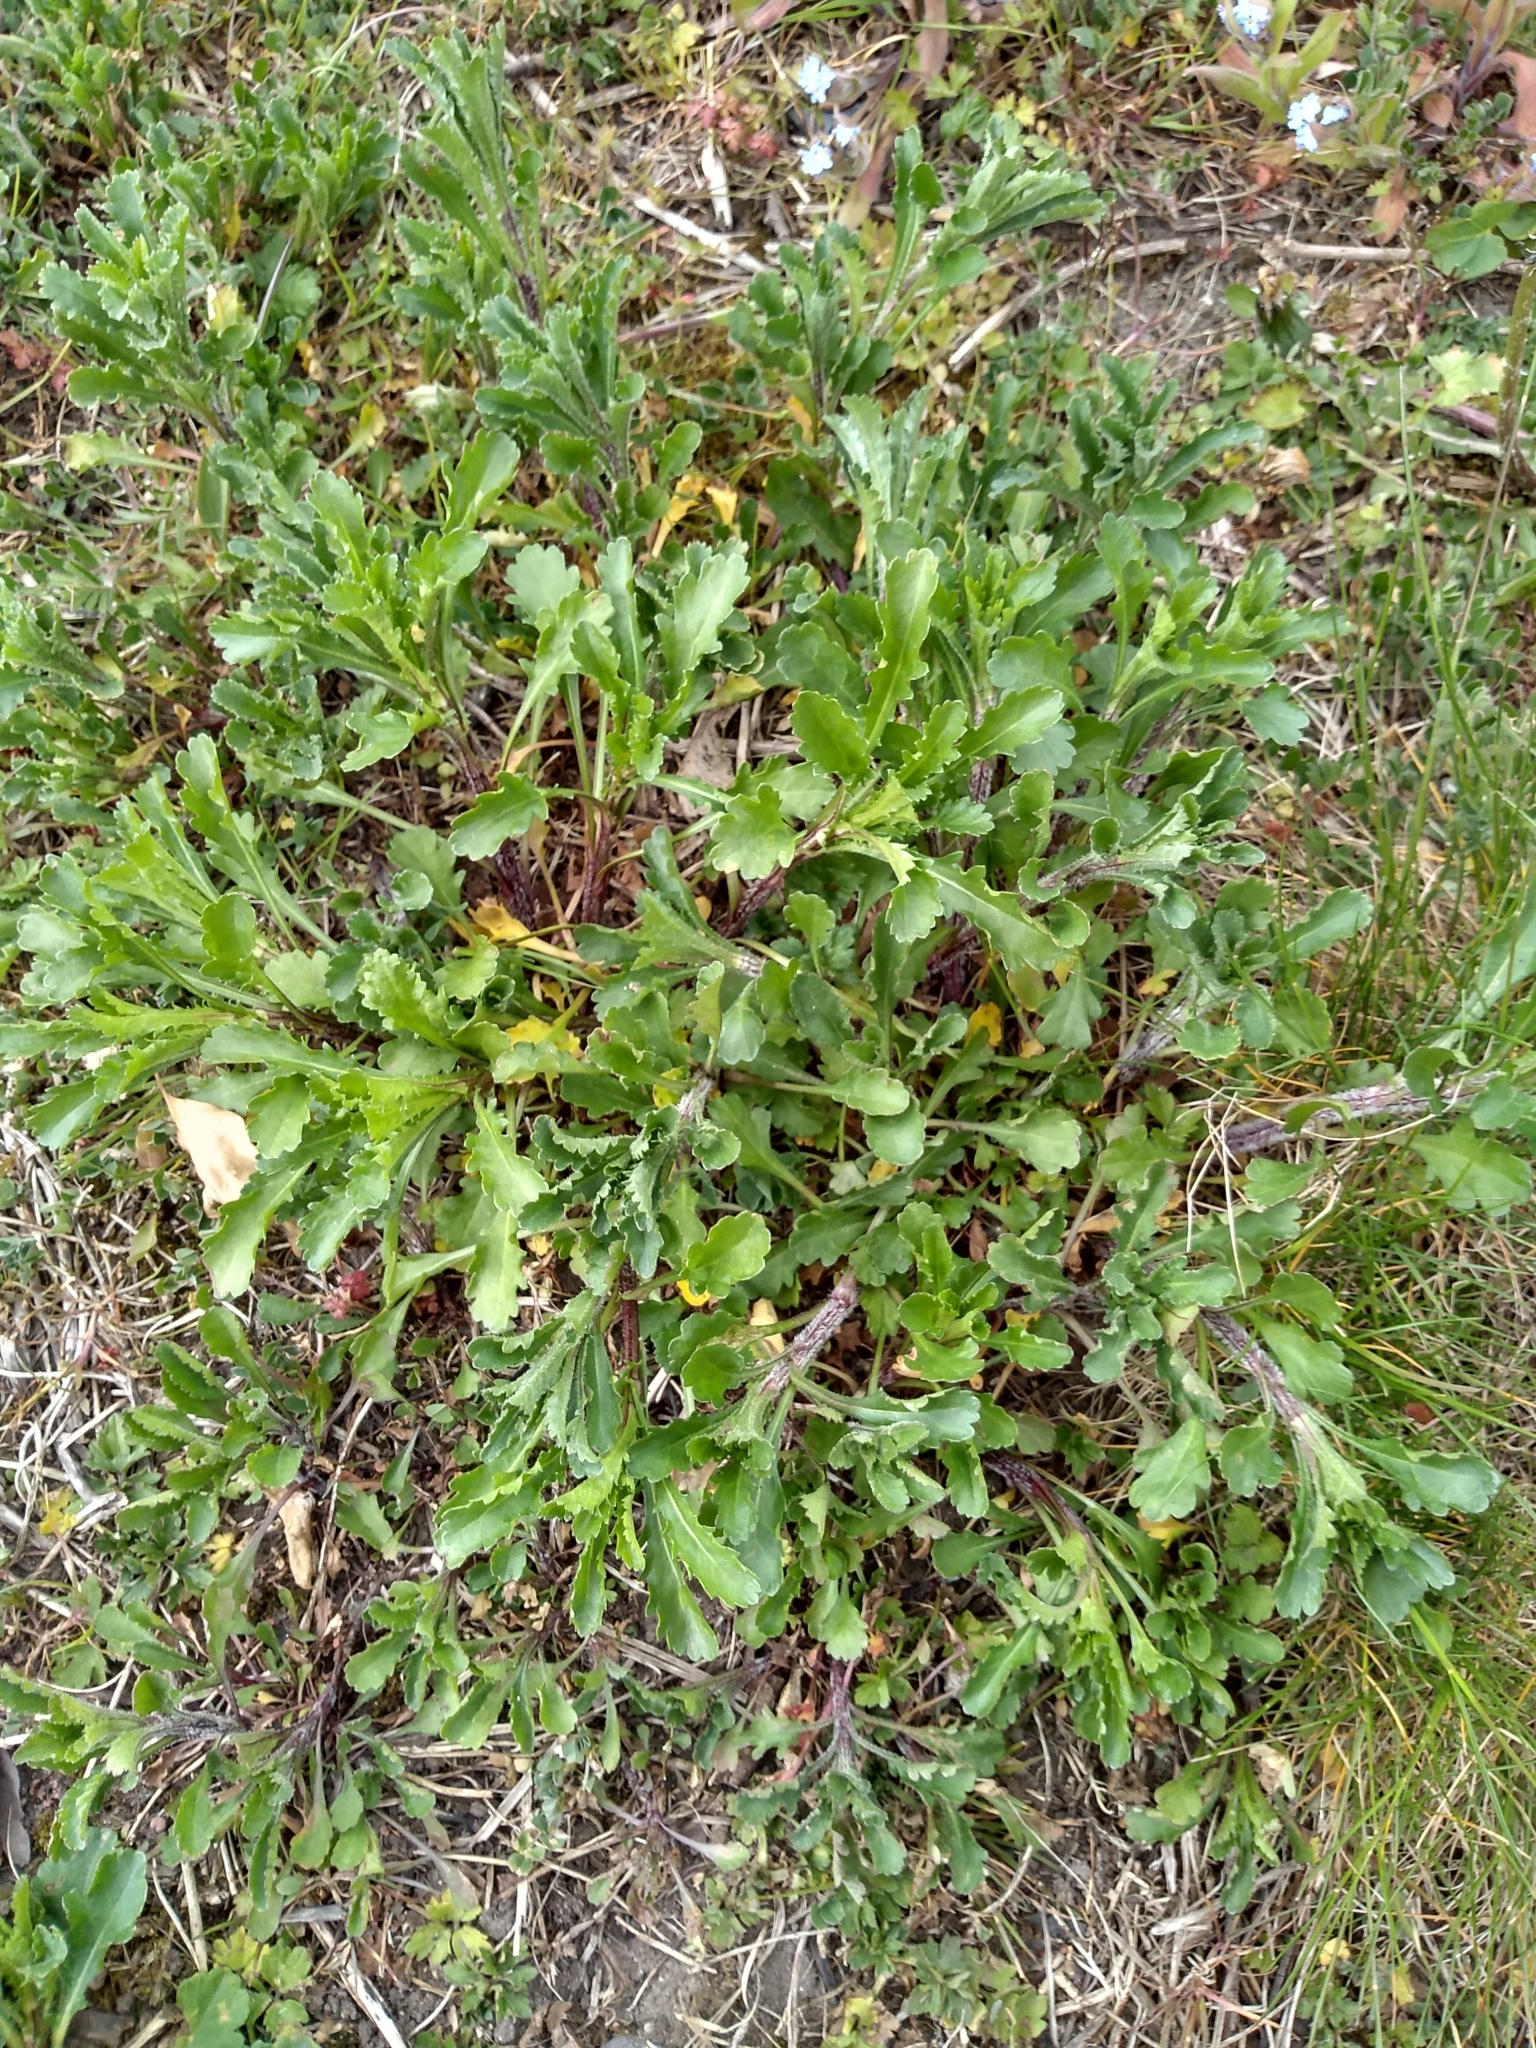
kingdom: Plantae
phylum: Tracheophyta
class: Magnoliopsida
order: Asterales
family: Asteraceae
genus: Leucanthemum
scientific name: Leucanthemum vulgare
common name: Oxeye daisy
